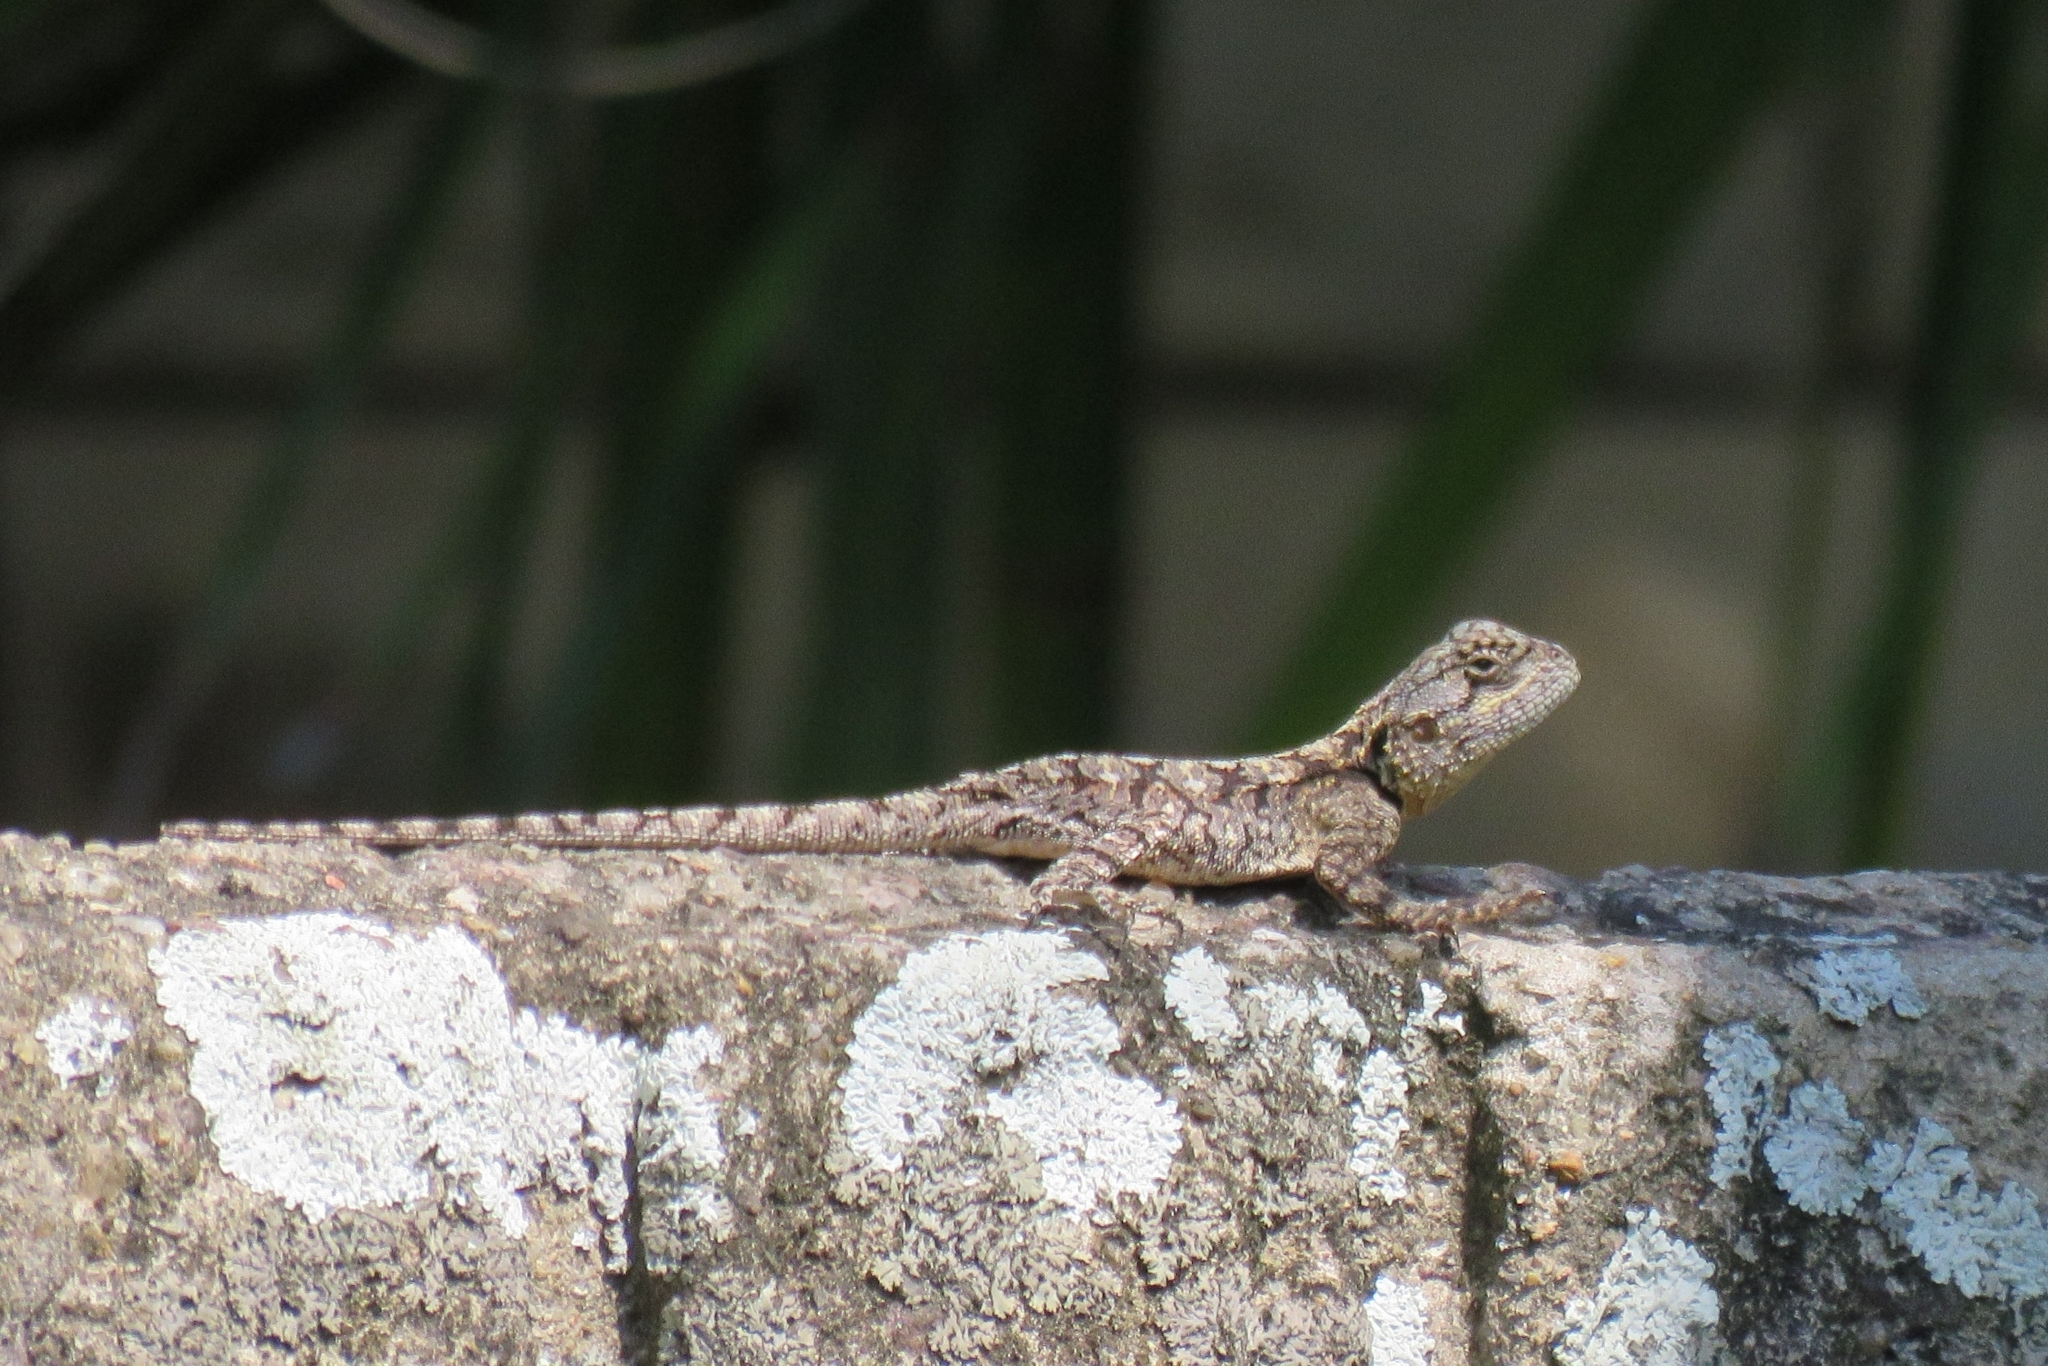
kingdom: Animalia
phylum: Chordata
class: Squamata
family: Agamidae
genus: Acanthocercus
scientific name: Acanthocercus atricollis
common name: Southern tree agama
